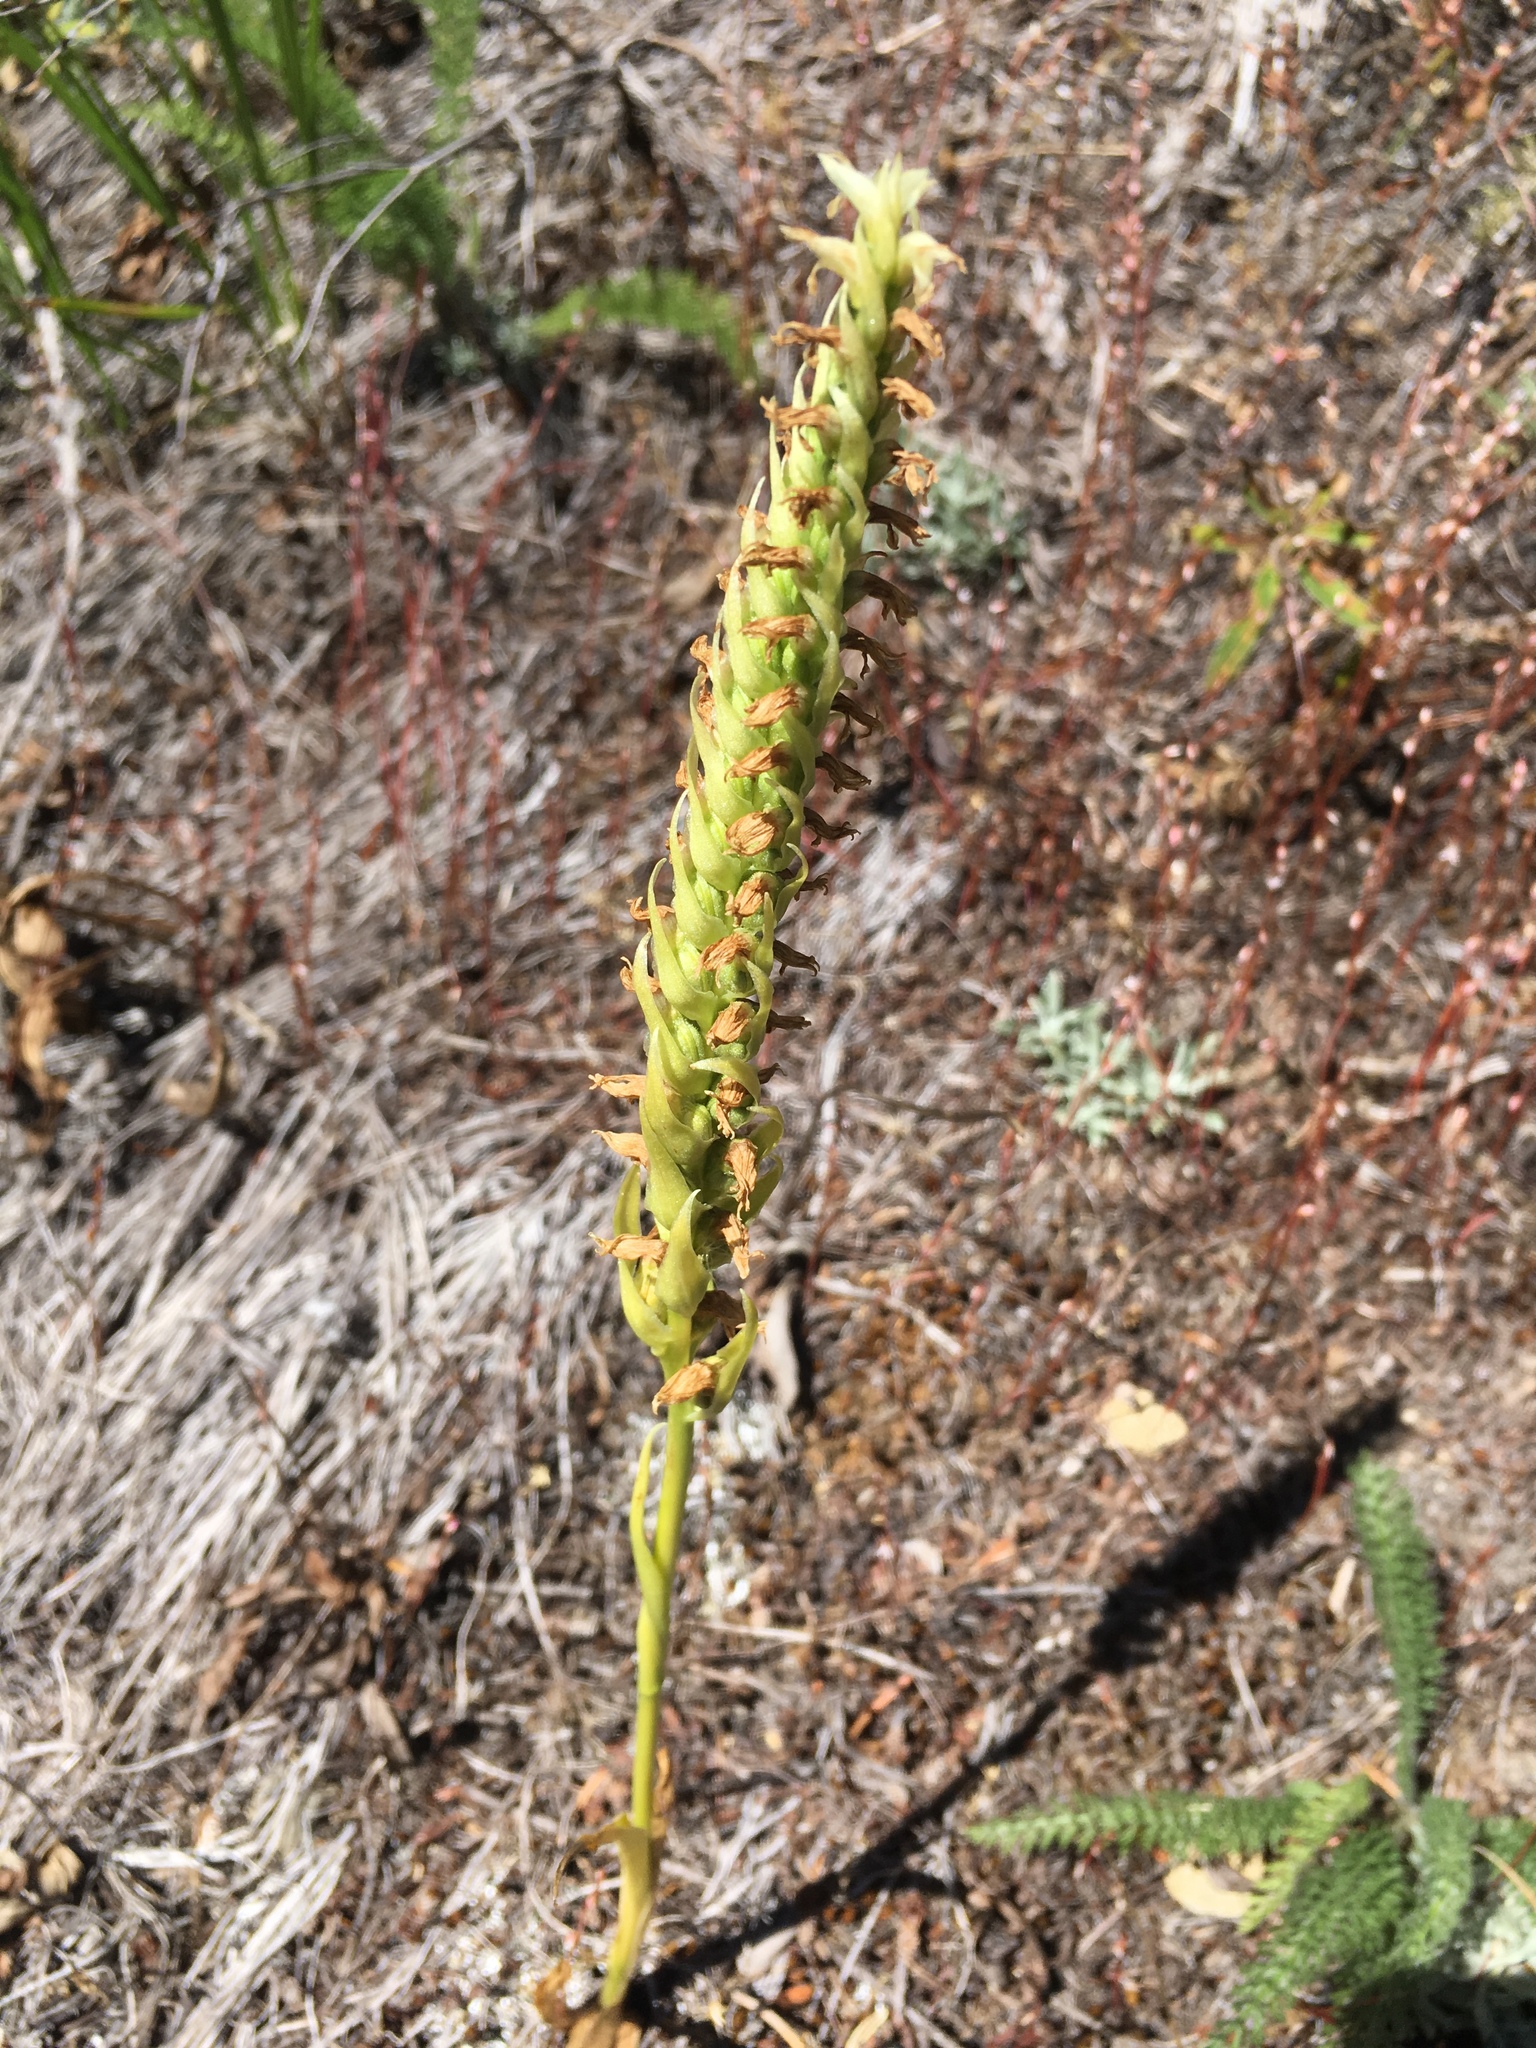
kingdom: Plantae
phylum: Tracheophyta
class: Liliopsida
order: Asparagales
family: Orchidaceae
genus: Spiranthes
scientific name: Spiranthes romanzoffiana
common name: Irish lady's-tresses
